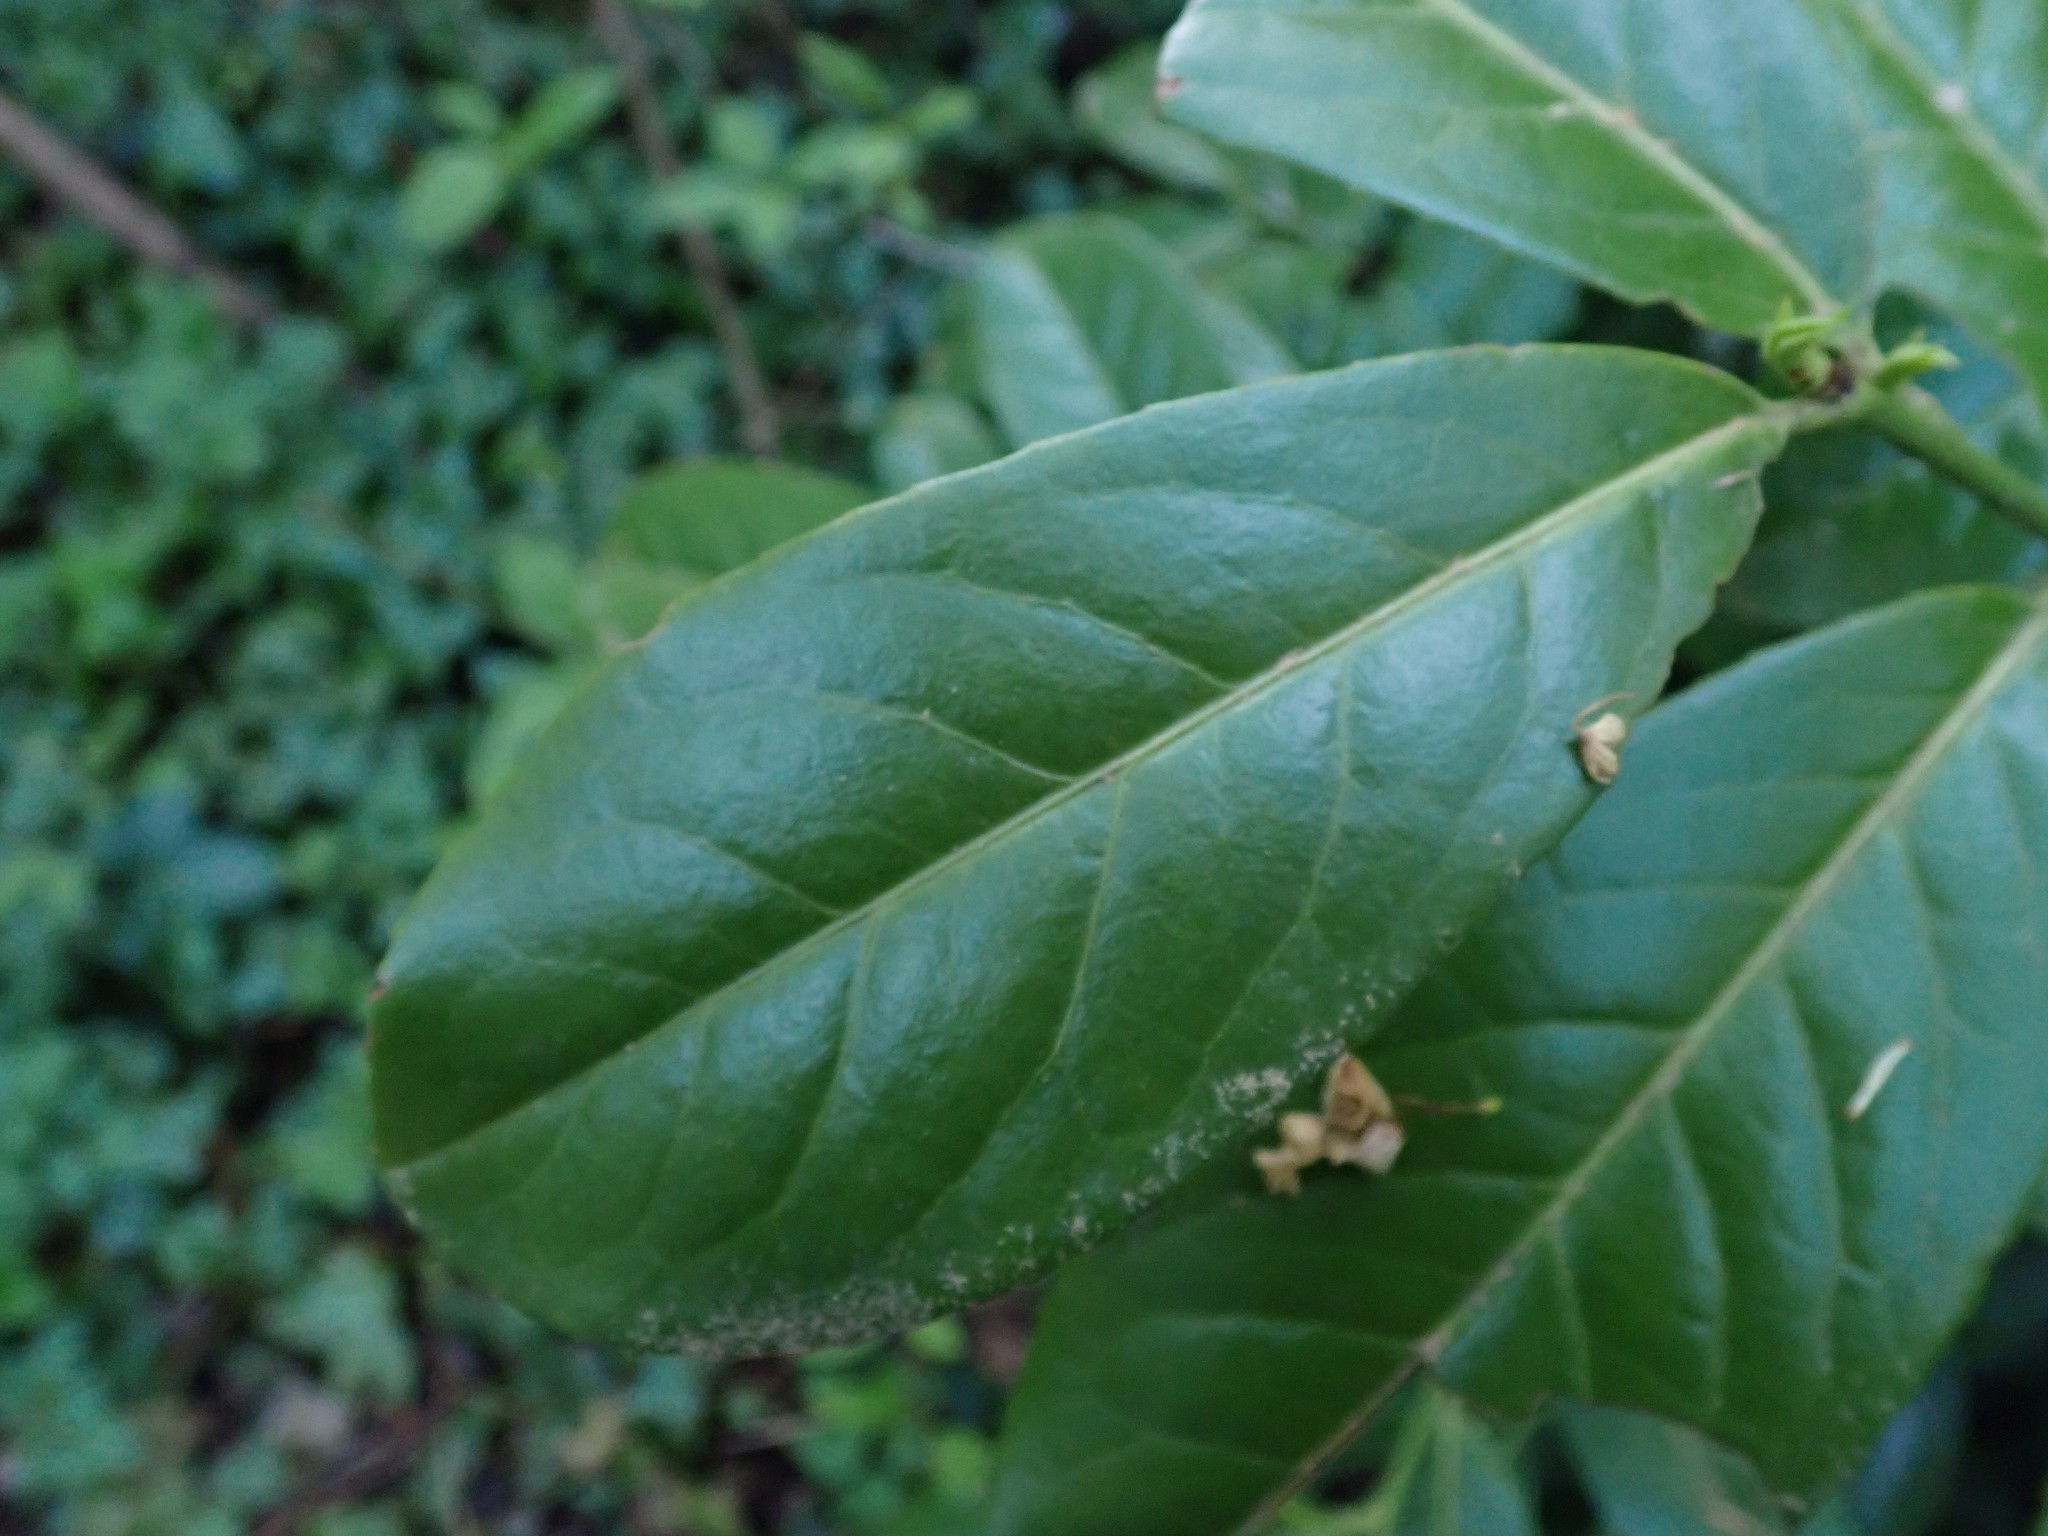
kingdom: Plantae
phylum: Tracheophyta
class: Magnoliopsida
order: Rosales
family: Rosaceae
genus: Prunus
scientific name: Prunus laurocerasus
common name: Cherry laurel
